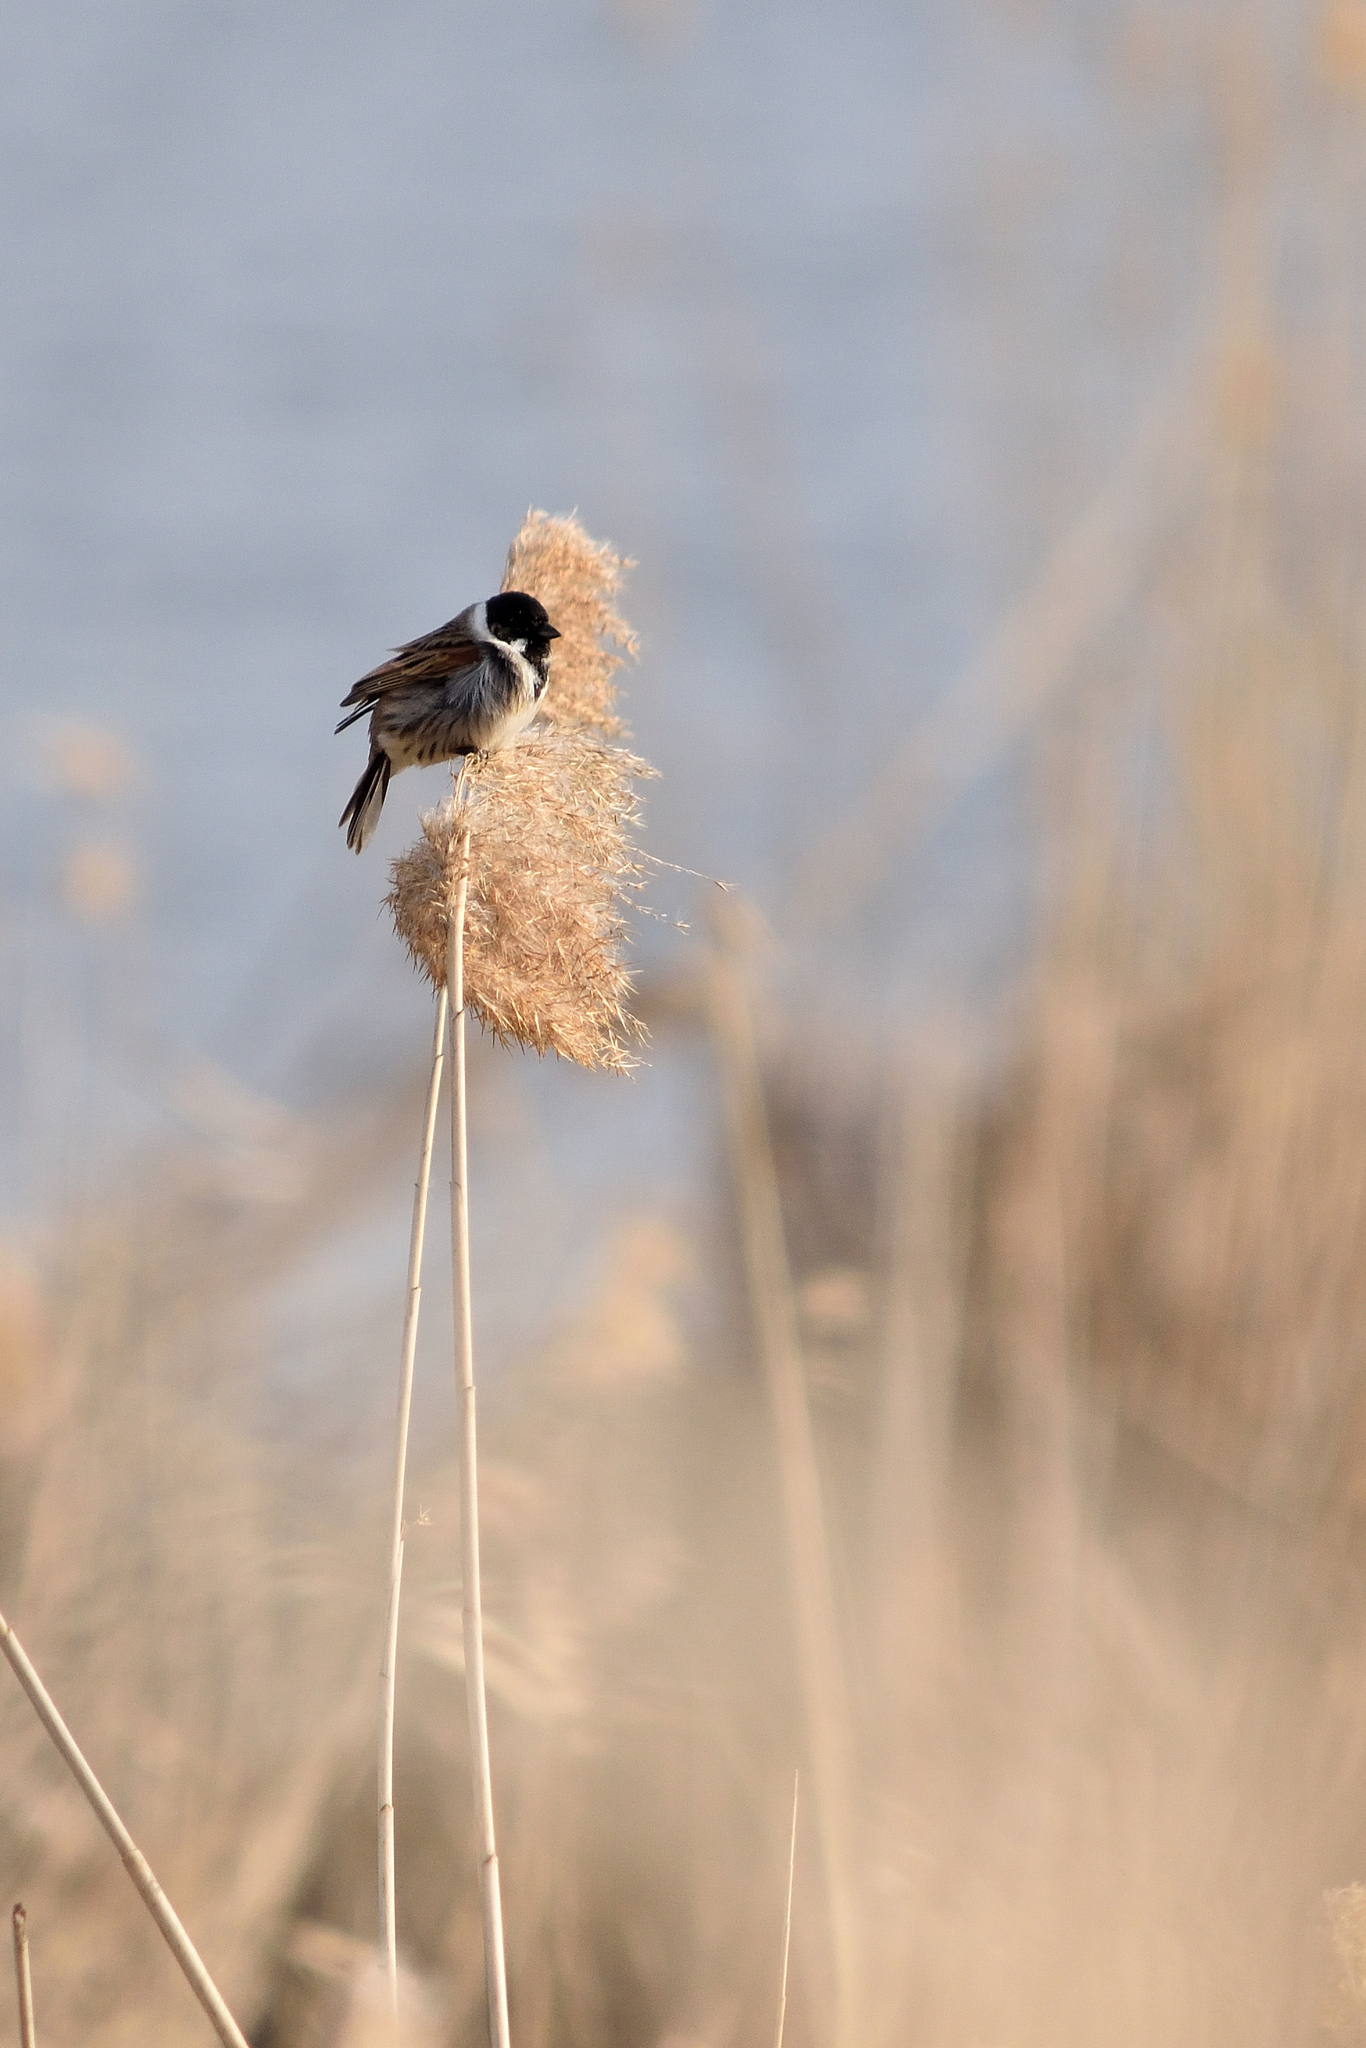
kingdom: Animalia
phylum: Chordata
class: Aves
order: Passeriformes
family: Emberizidae
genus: Emberiza
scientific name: Emberiza schoeniclus
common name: Reed bunting
